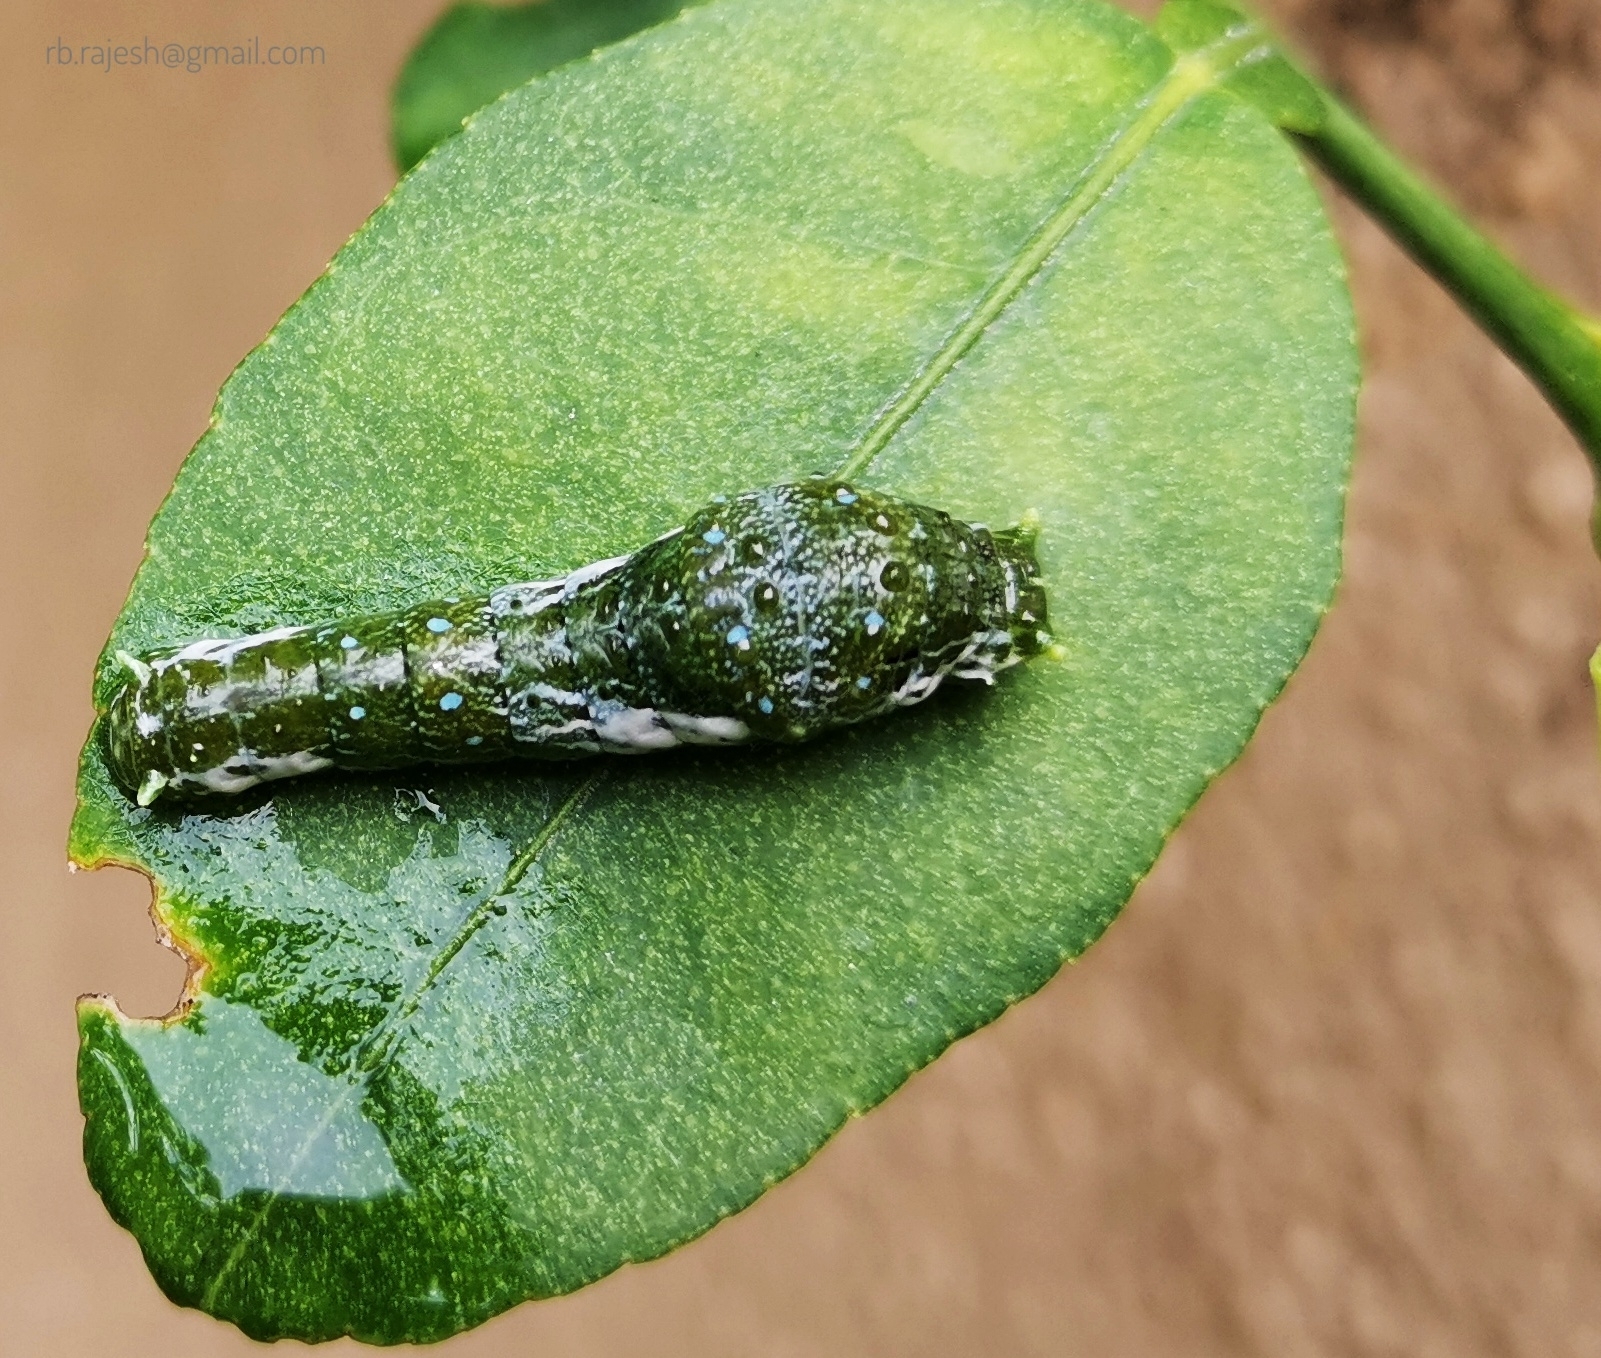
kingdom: Animalia
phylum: Arthropoda
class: Insecta
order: Lepidoptera
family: Papilionidae
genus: Papilio
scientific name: Papilio memnon
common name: Great mormon
